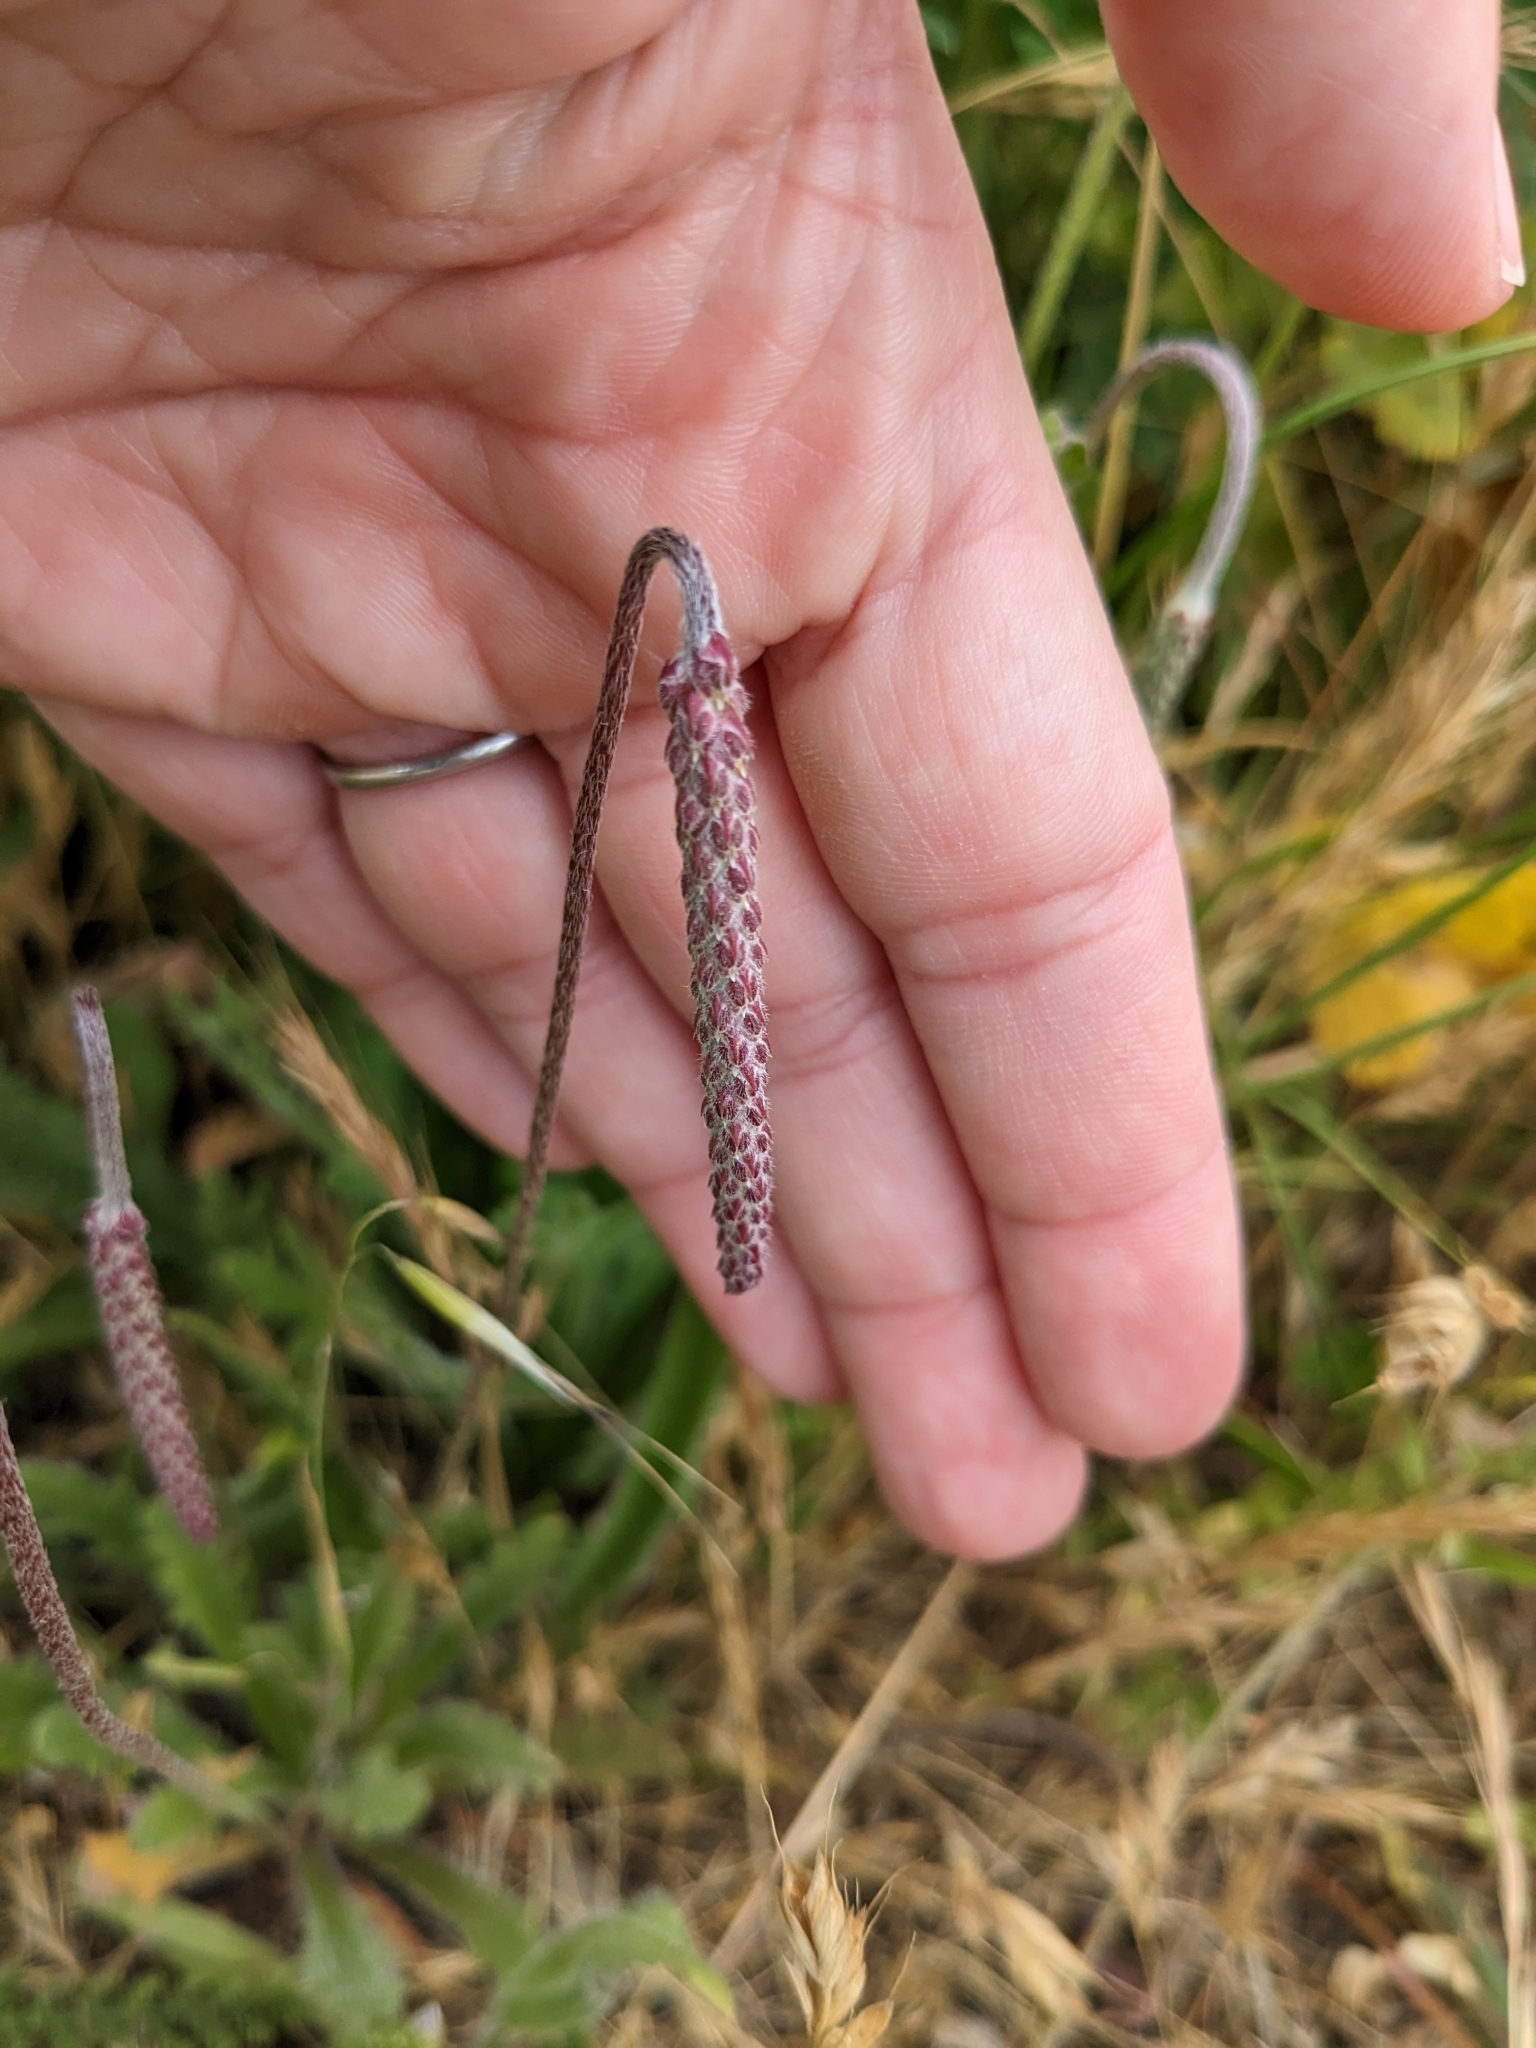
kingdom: Plantae
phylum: Tracheophyta
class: Magnoliopsida
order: Lamiales
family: Plantaginaceae
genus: Plantago
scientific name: Plantago coronopus
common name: Buck's-horn plantain
